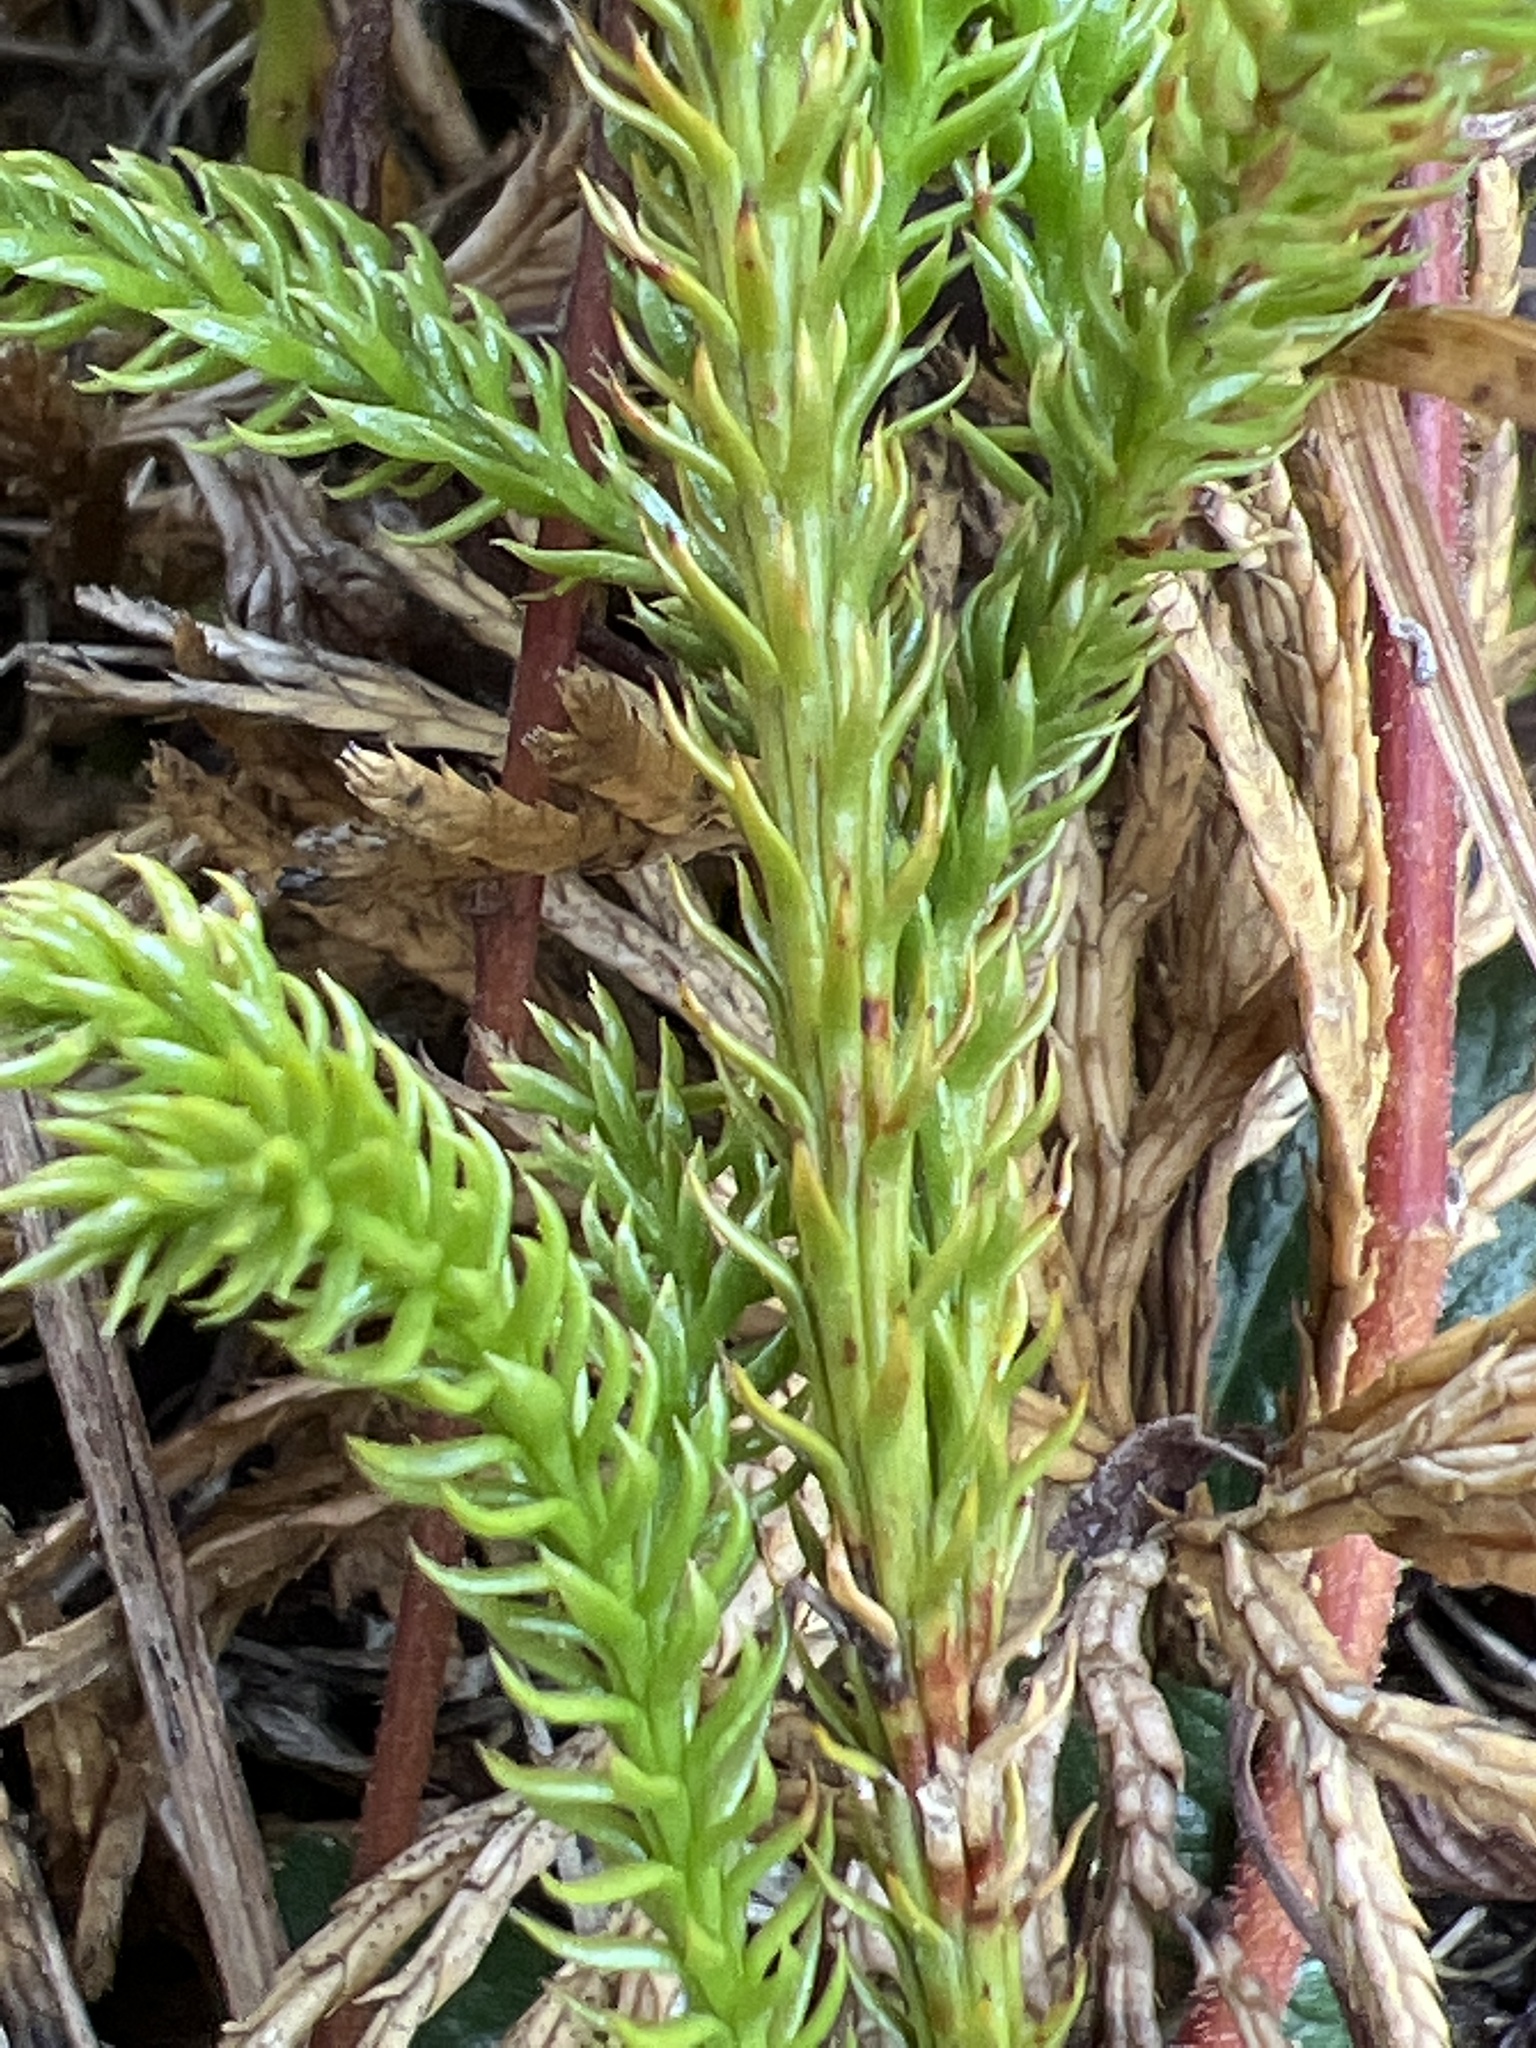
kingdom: Plantae
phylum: Tracheophyta
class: Lycopodiopsida
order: Lycopodiales
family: Lycopodiaceae
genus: Diphasiastrum
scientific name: Diphasiastrum digitatum
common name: Southern running-pine
